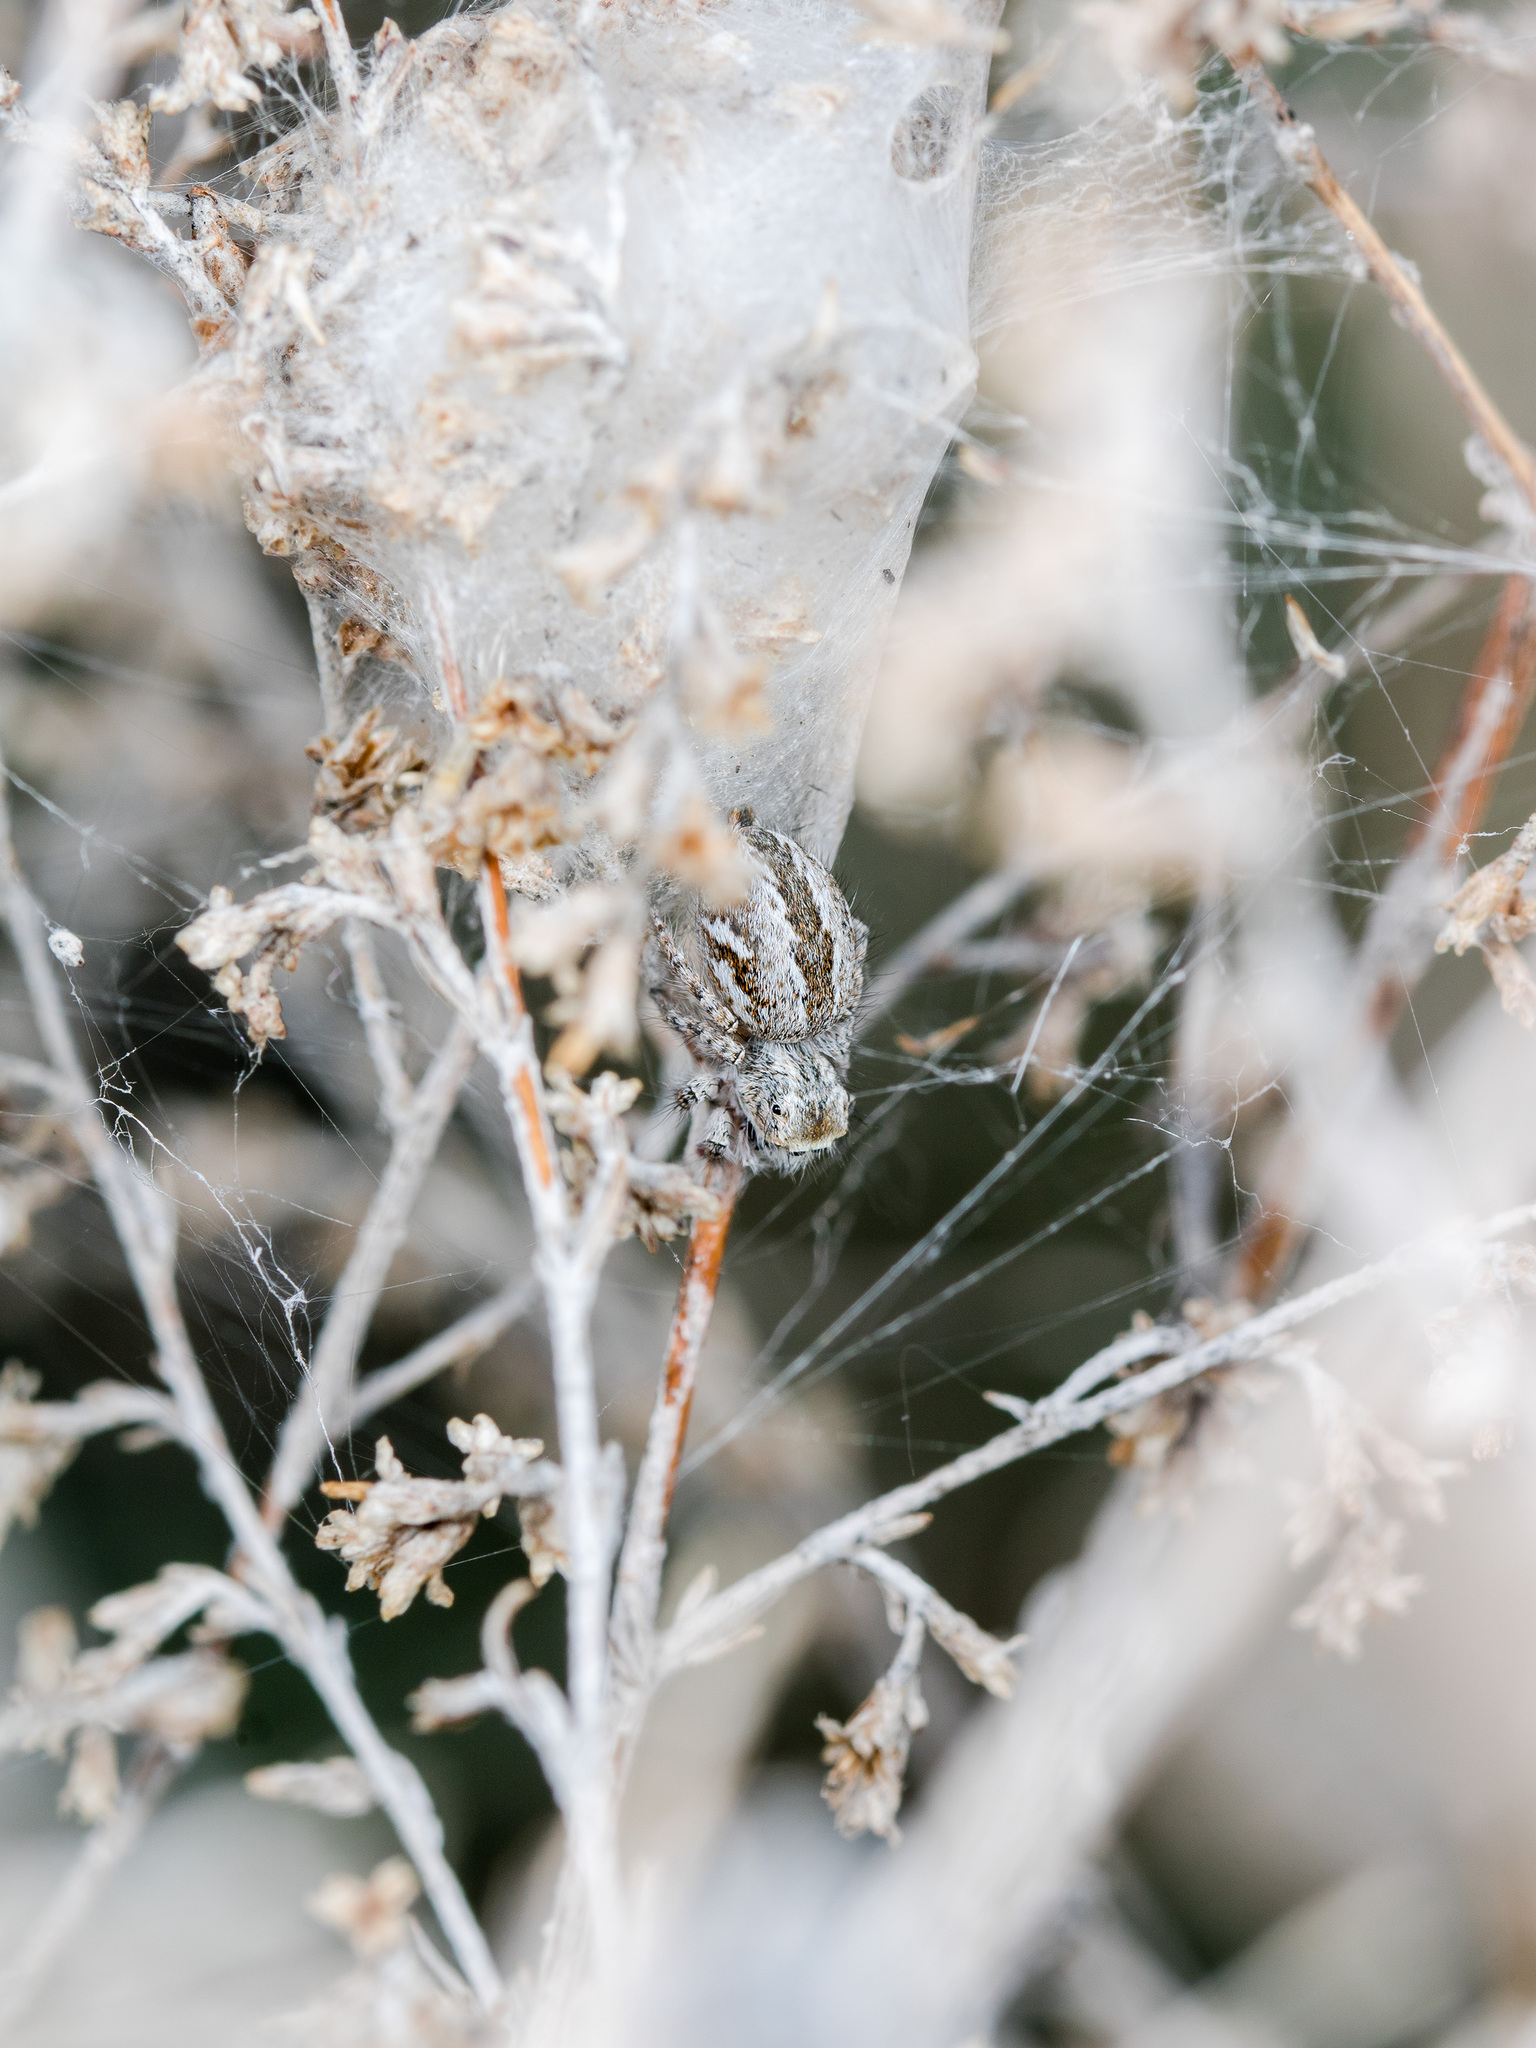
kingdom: Animalia
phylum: Arthropoda
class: Arachnida
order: Araneae
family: Salticidae
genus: Mogrus
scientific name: Mogrus larisae
